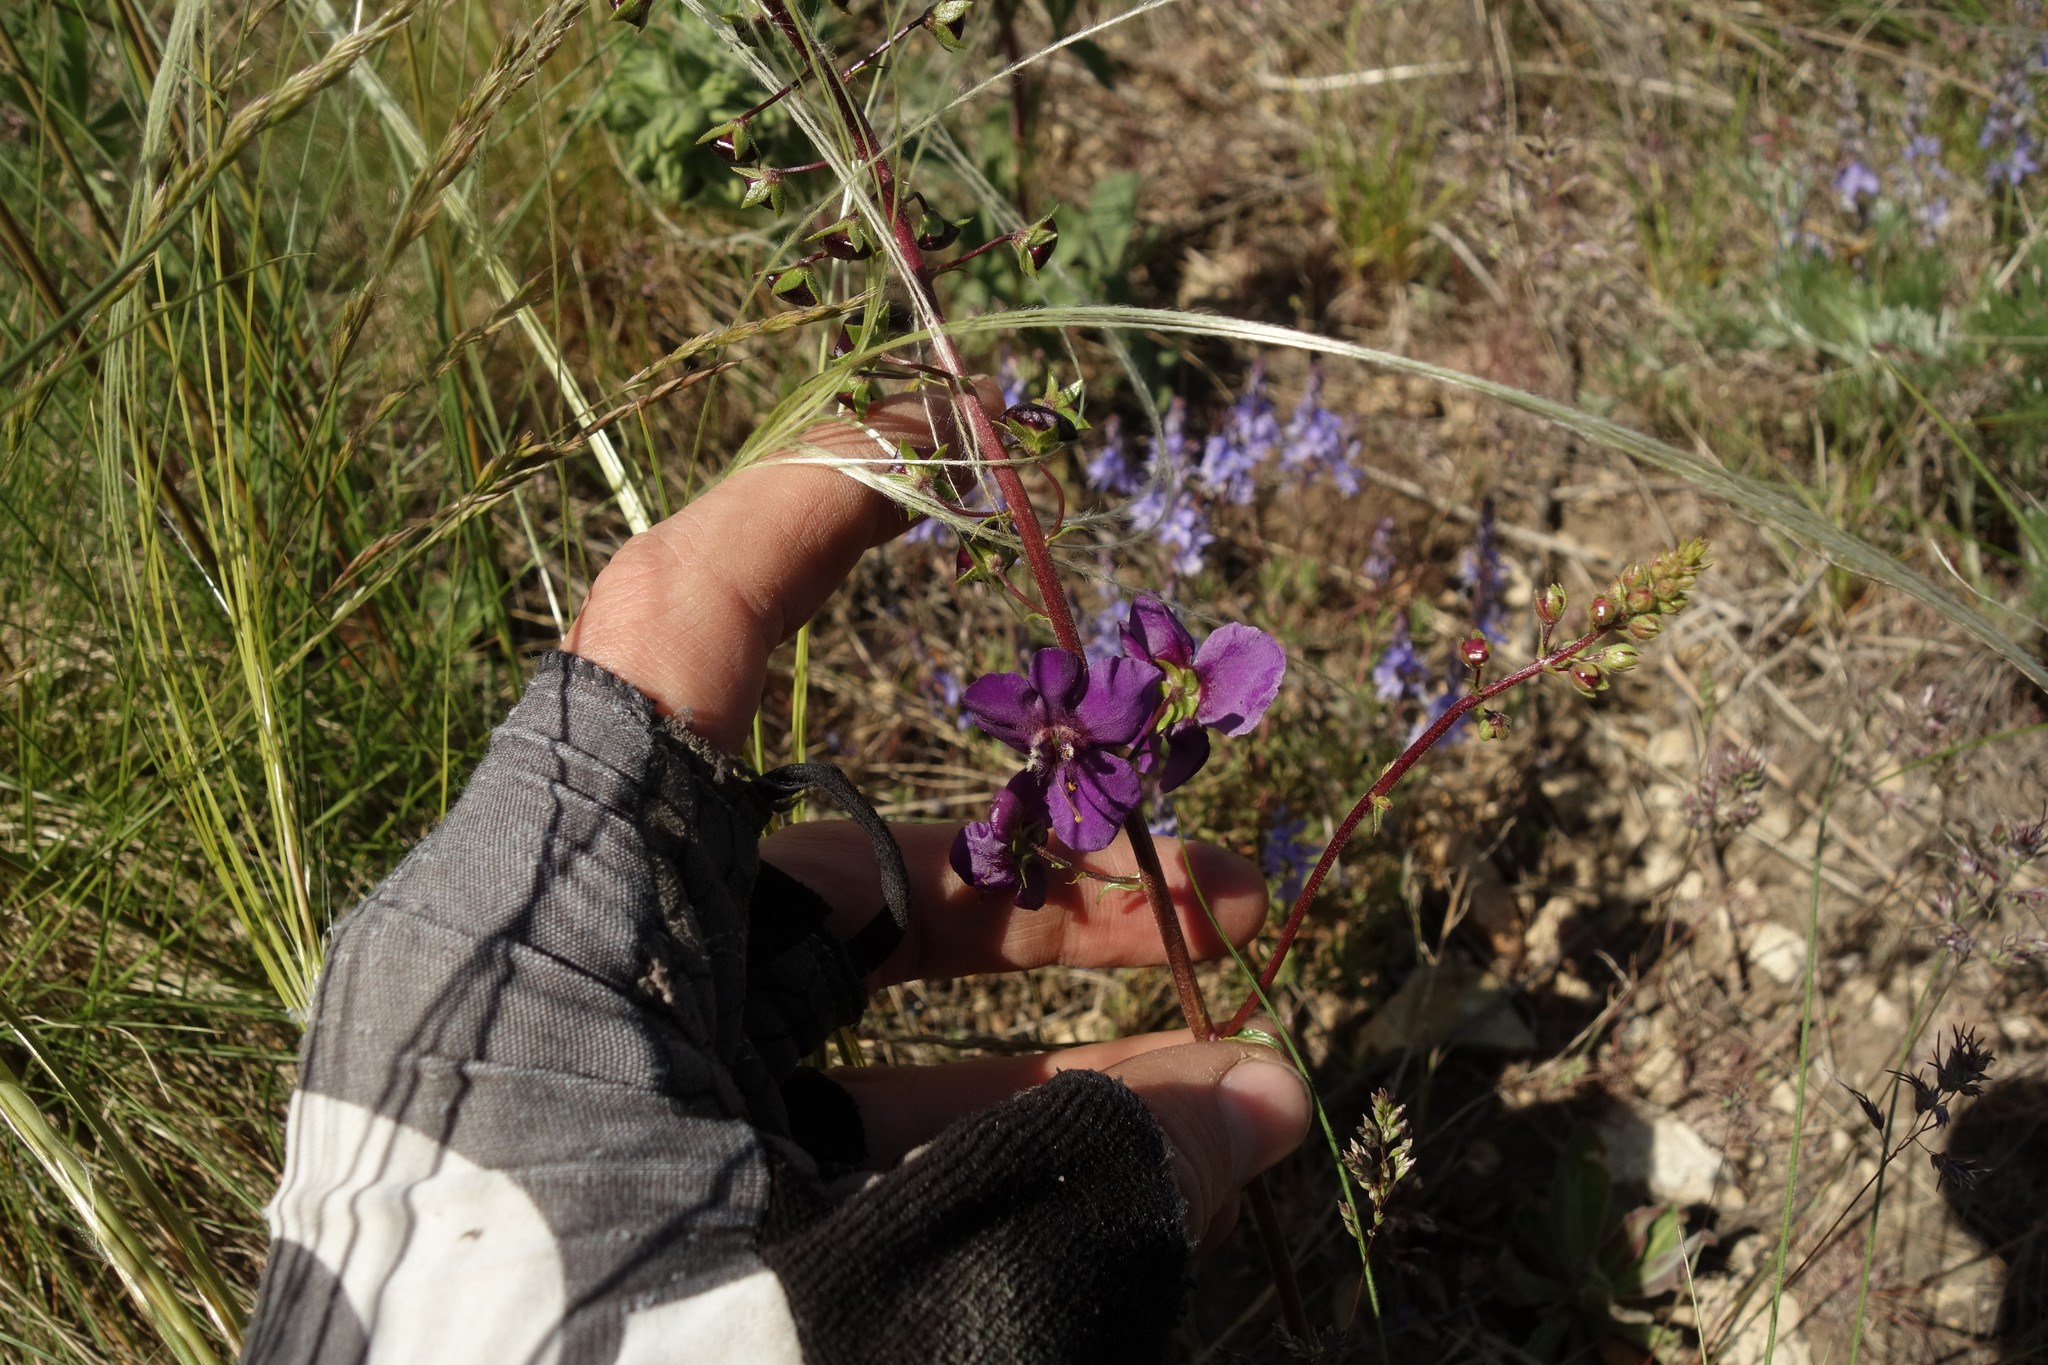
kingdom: Plantae
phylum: Tracheophyta
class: Magnoliopsida
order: Lamiales
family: Scrophulariaceae
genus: Verbascum
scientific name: Verbascum phoeniceum
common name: Purple mullein
